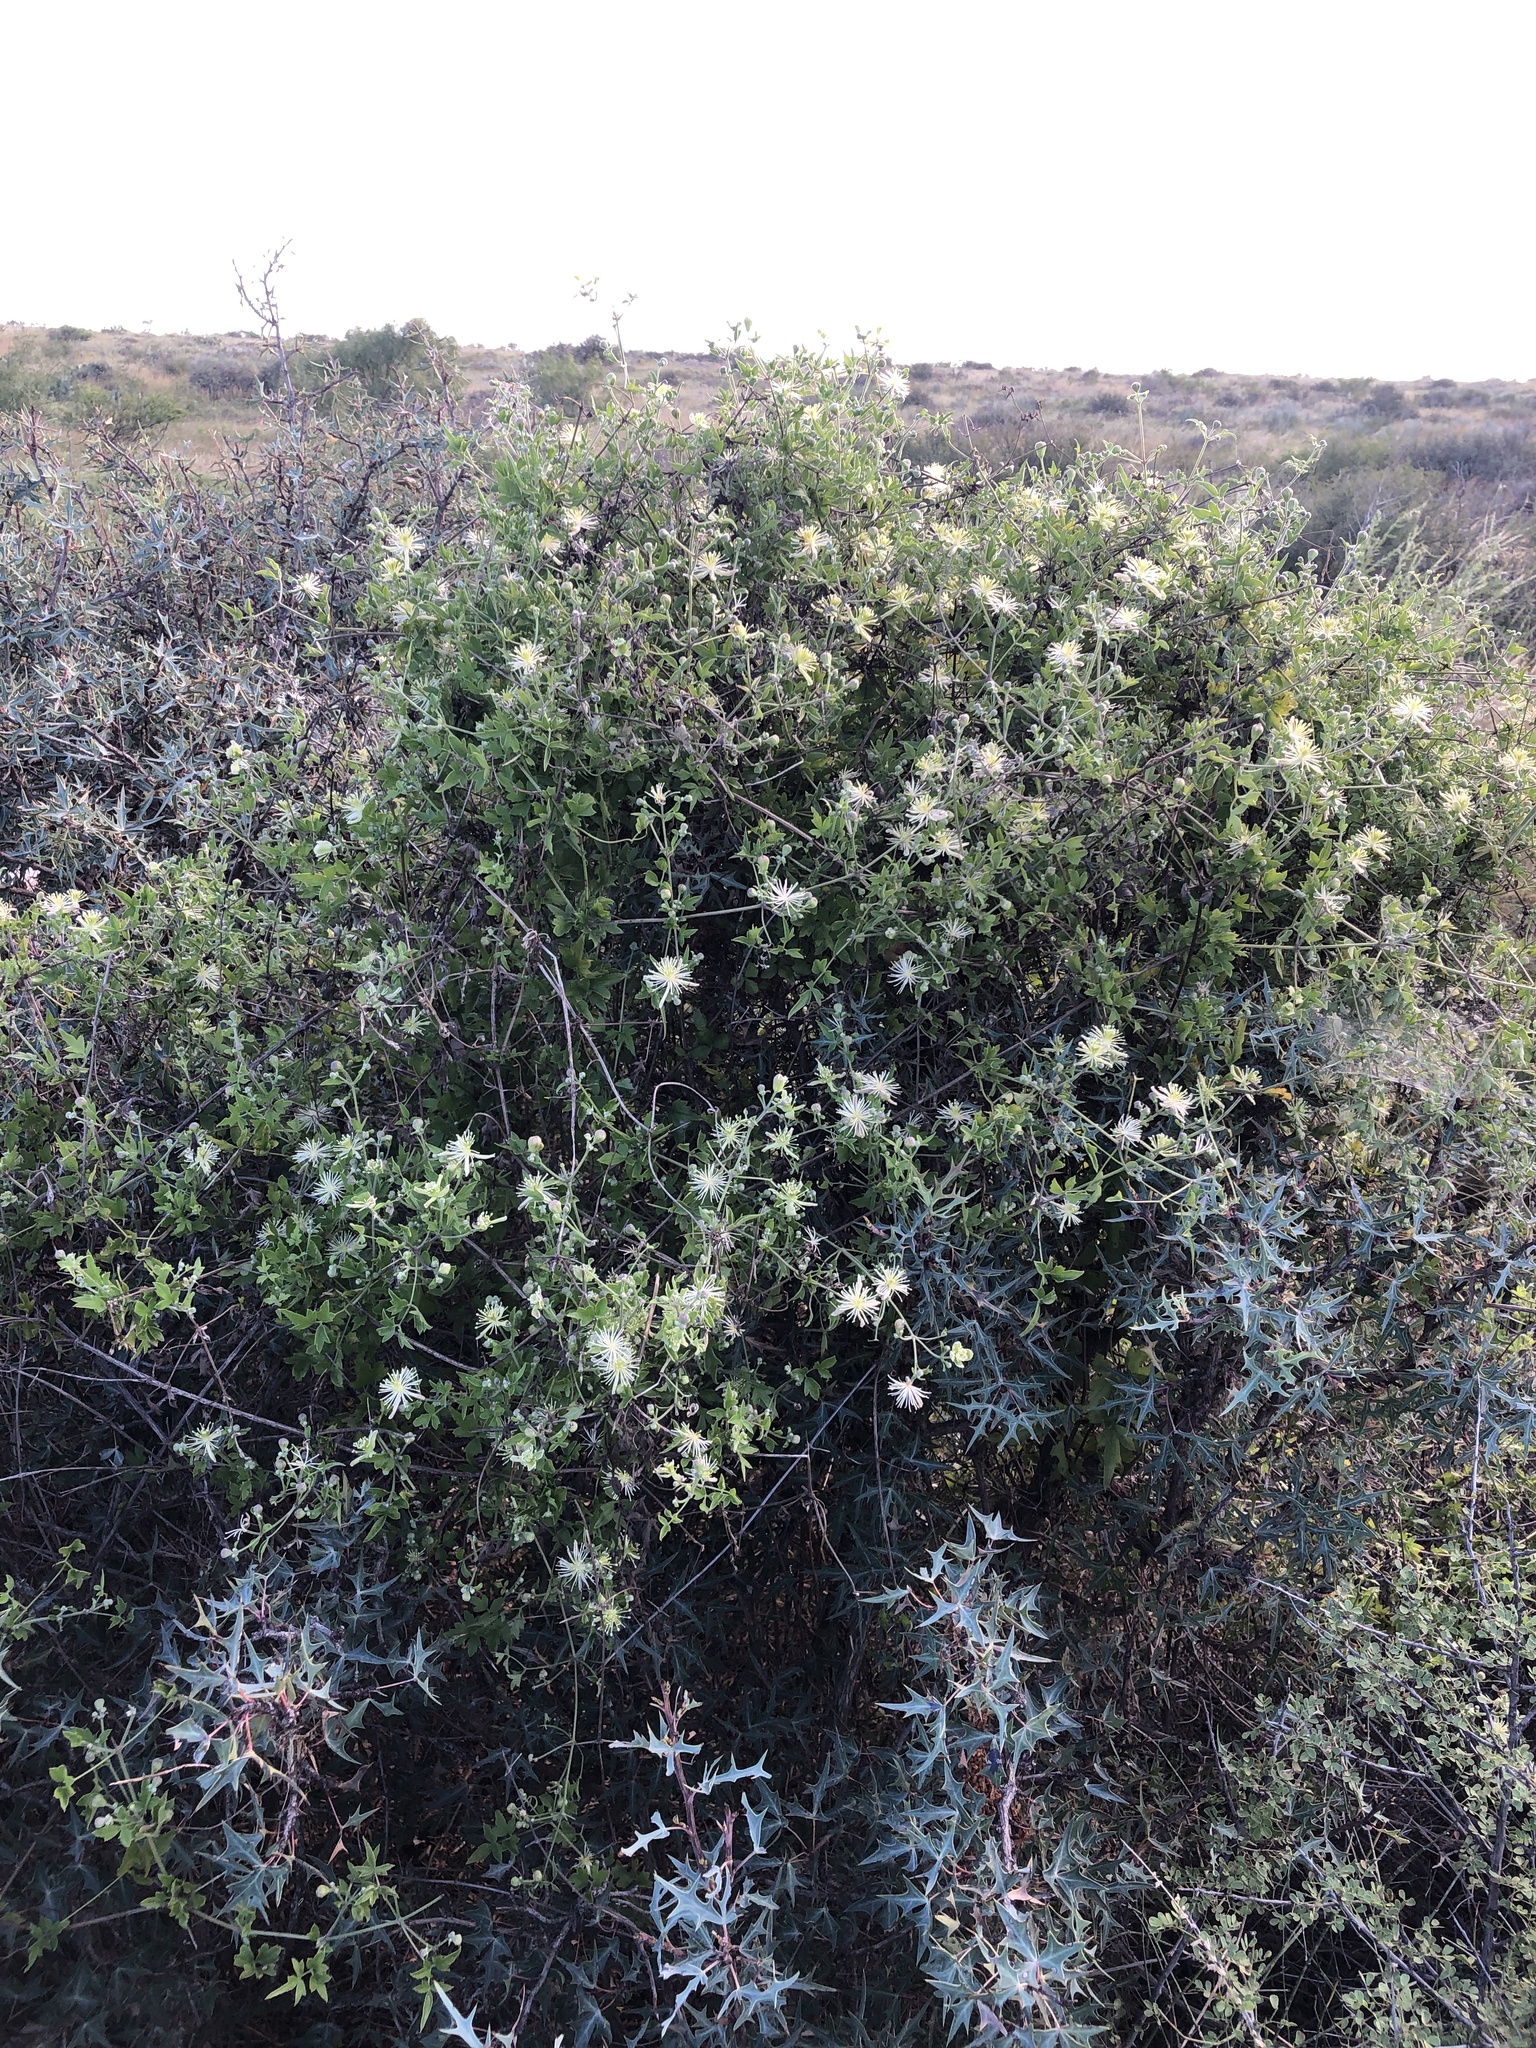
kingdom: Plantae
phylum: Tracheophyta
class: Magnoliopsida
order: Ranunculales
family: Ranunculaceae
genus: Clematis
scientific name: Clematis drummondii
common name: Texas virgin's bower
